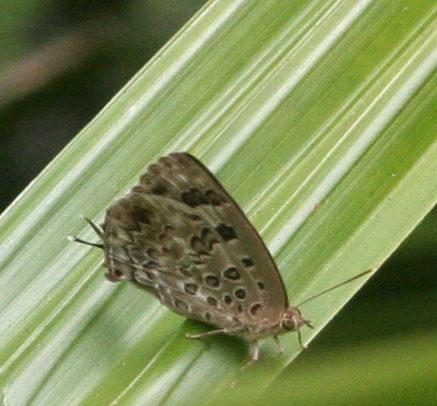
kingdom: Animalia
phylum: Arthropoda
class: Insecta
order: Lepidoptera
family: Lycaenidae
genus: Arhopala
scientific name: Arhopala
